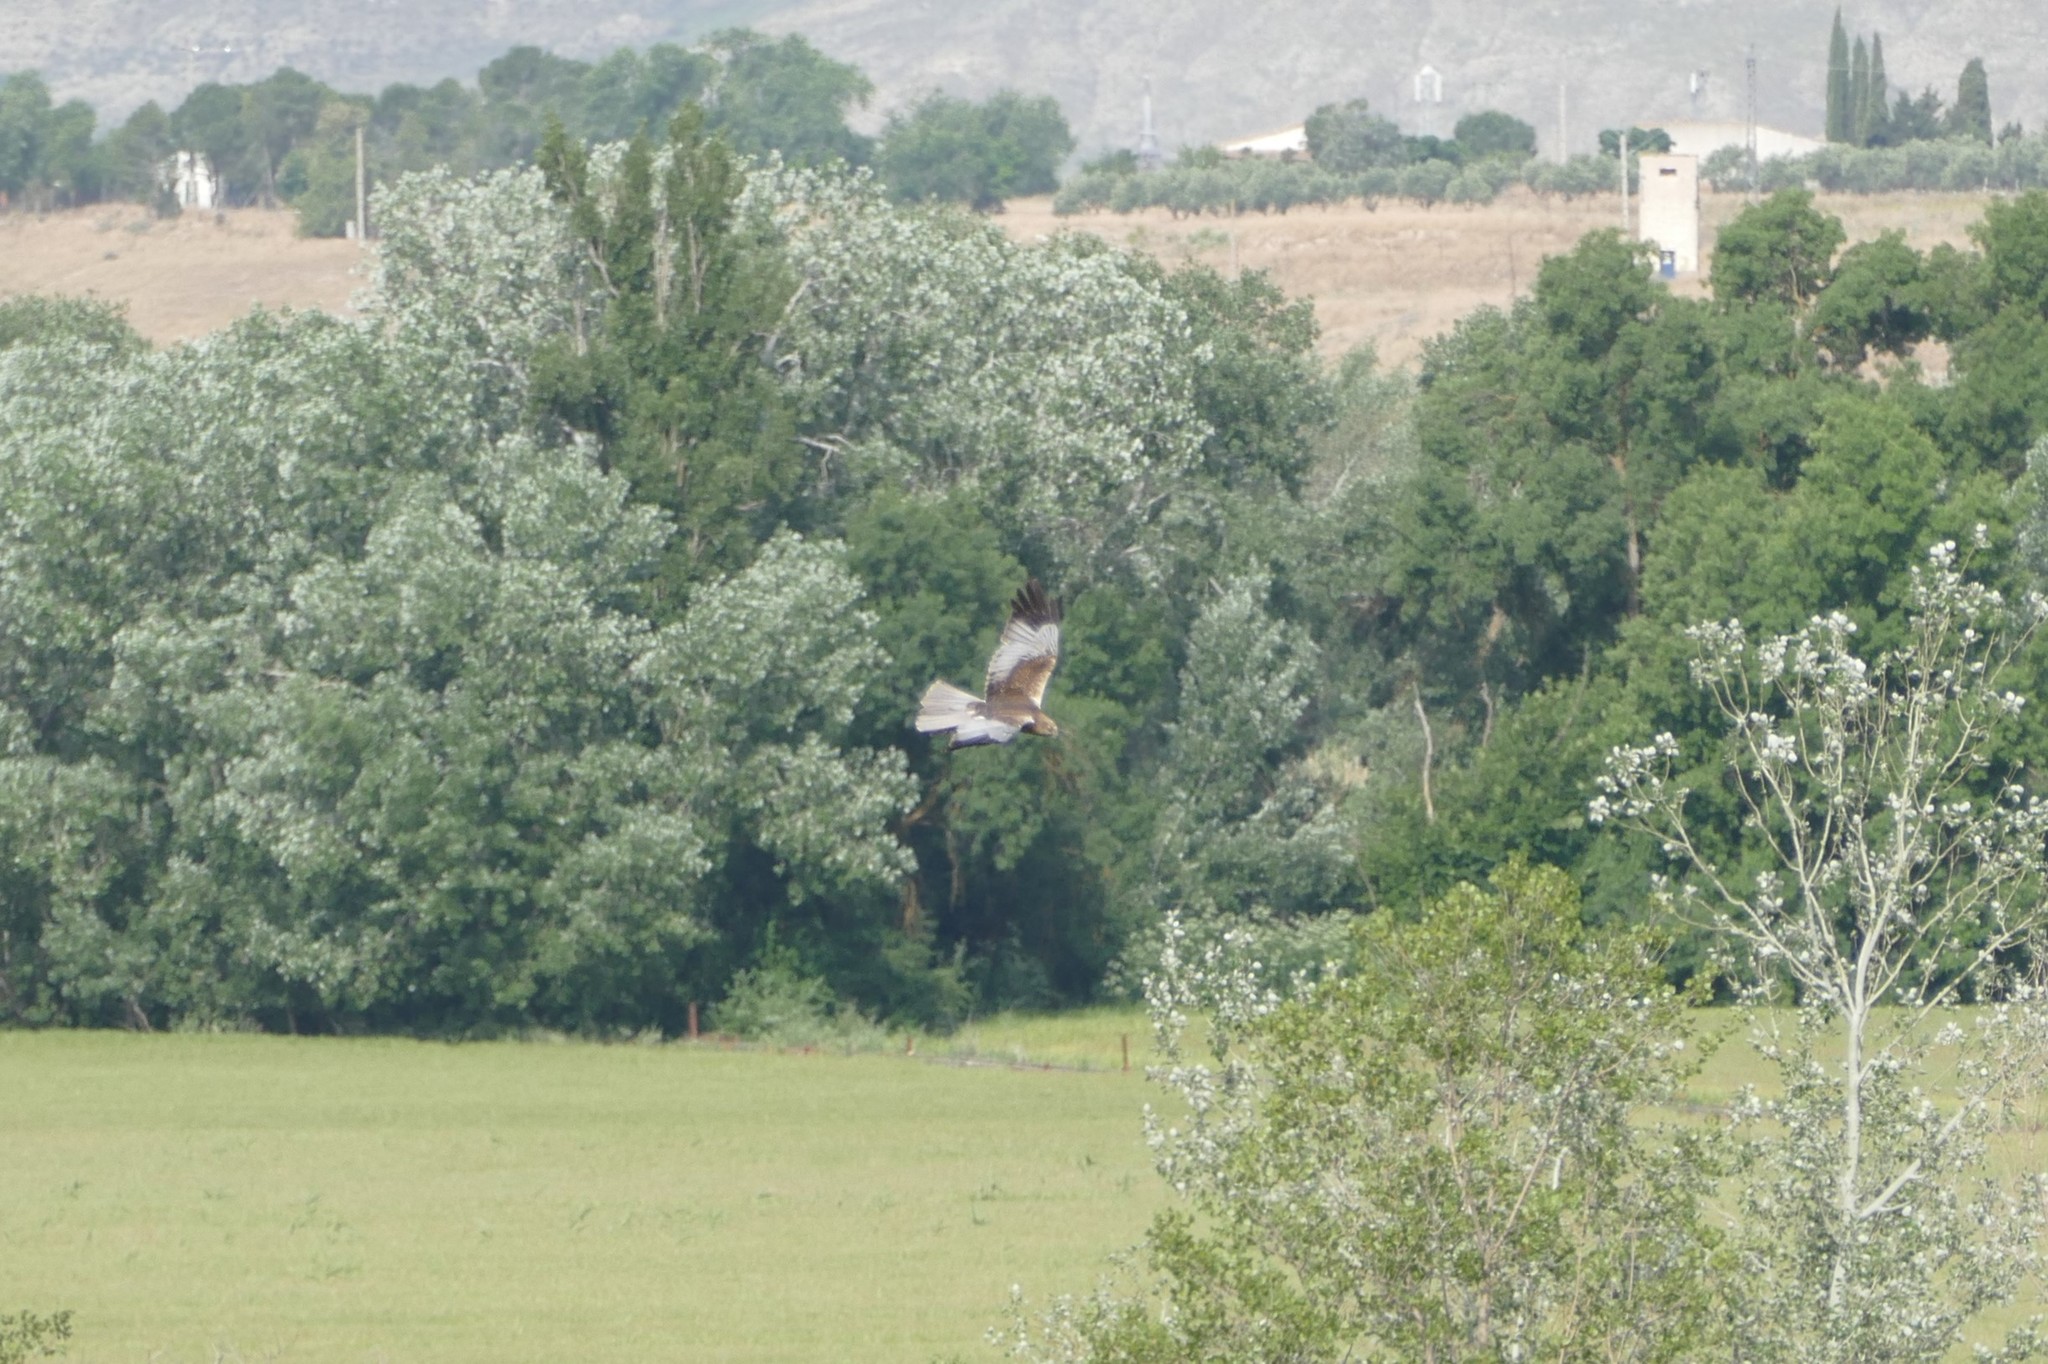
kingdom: Animalia
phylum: Chordata
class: Aves
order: Accipitriformes
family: Accipitridae
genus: Circus
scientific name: Circus aeruginosus
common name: Western marsh harrier
